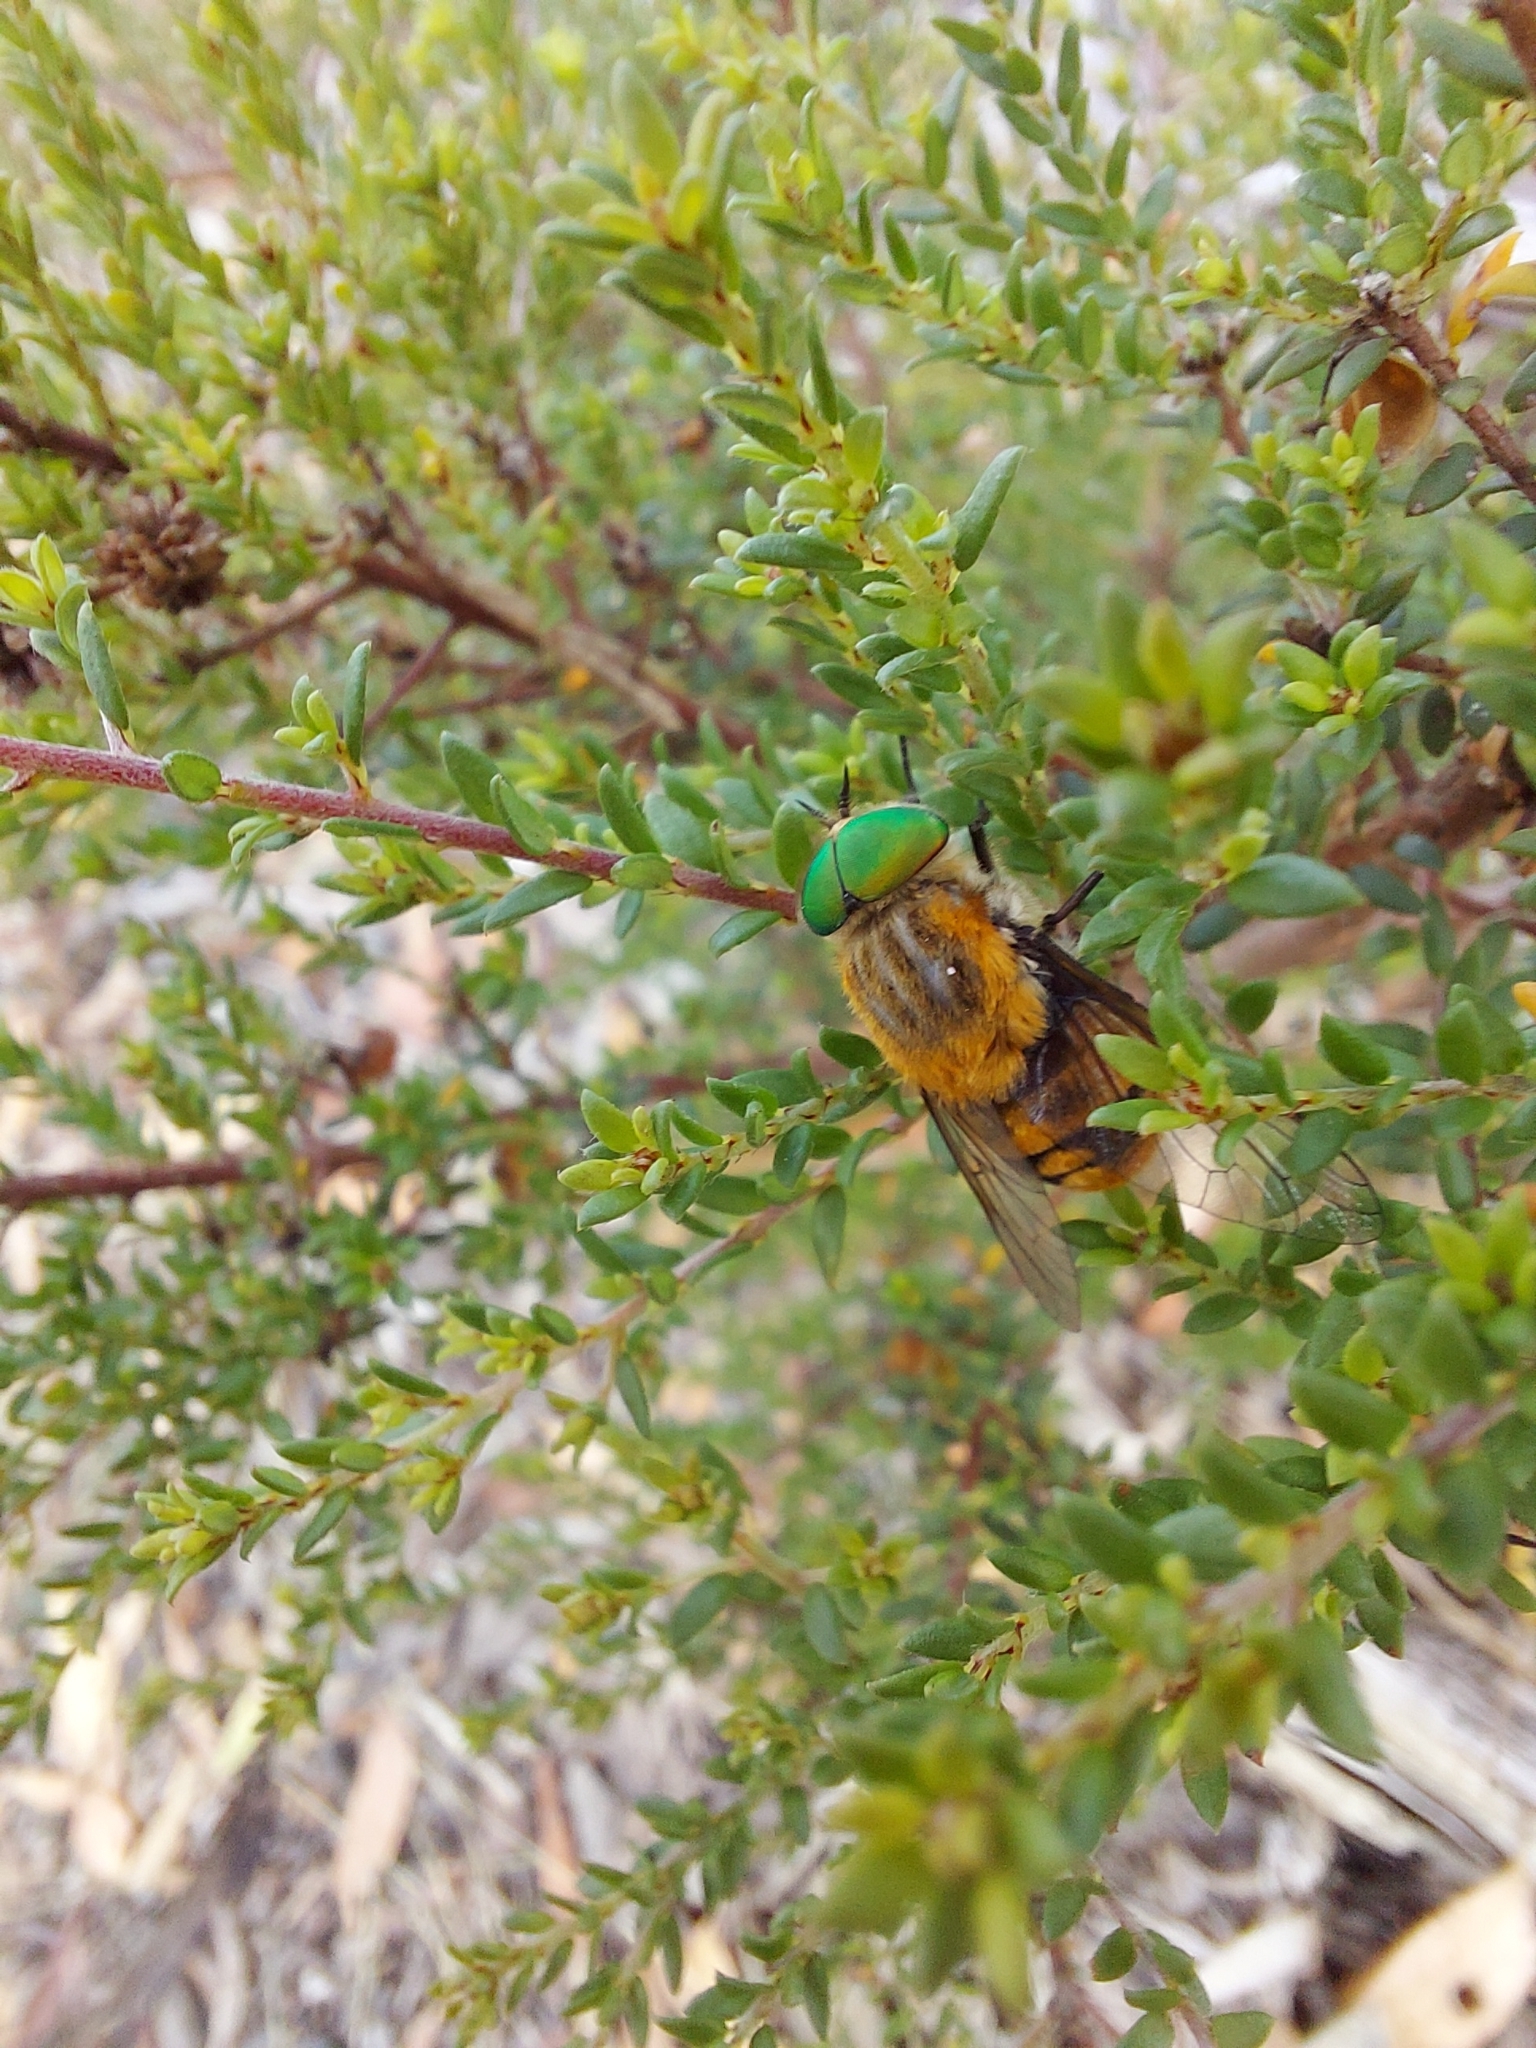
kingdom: Animalia
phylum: Arthropoda
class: Insecta
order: Diptera
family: Tabanidae
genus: Scaptia
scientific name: Scaptia auriflua
